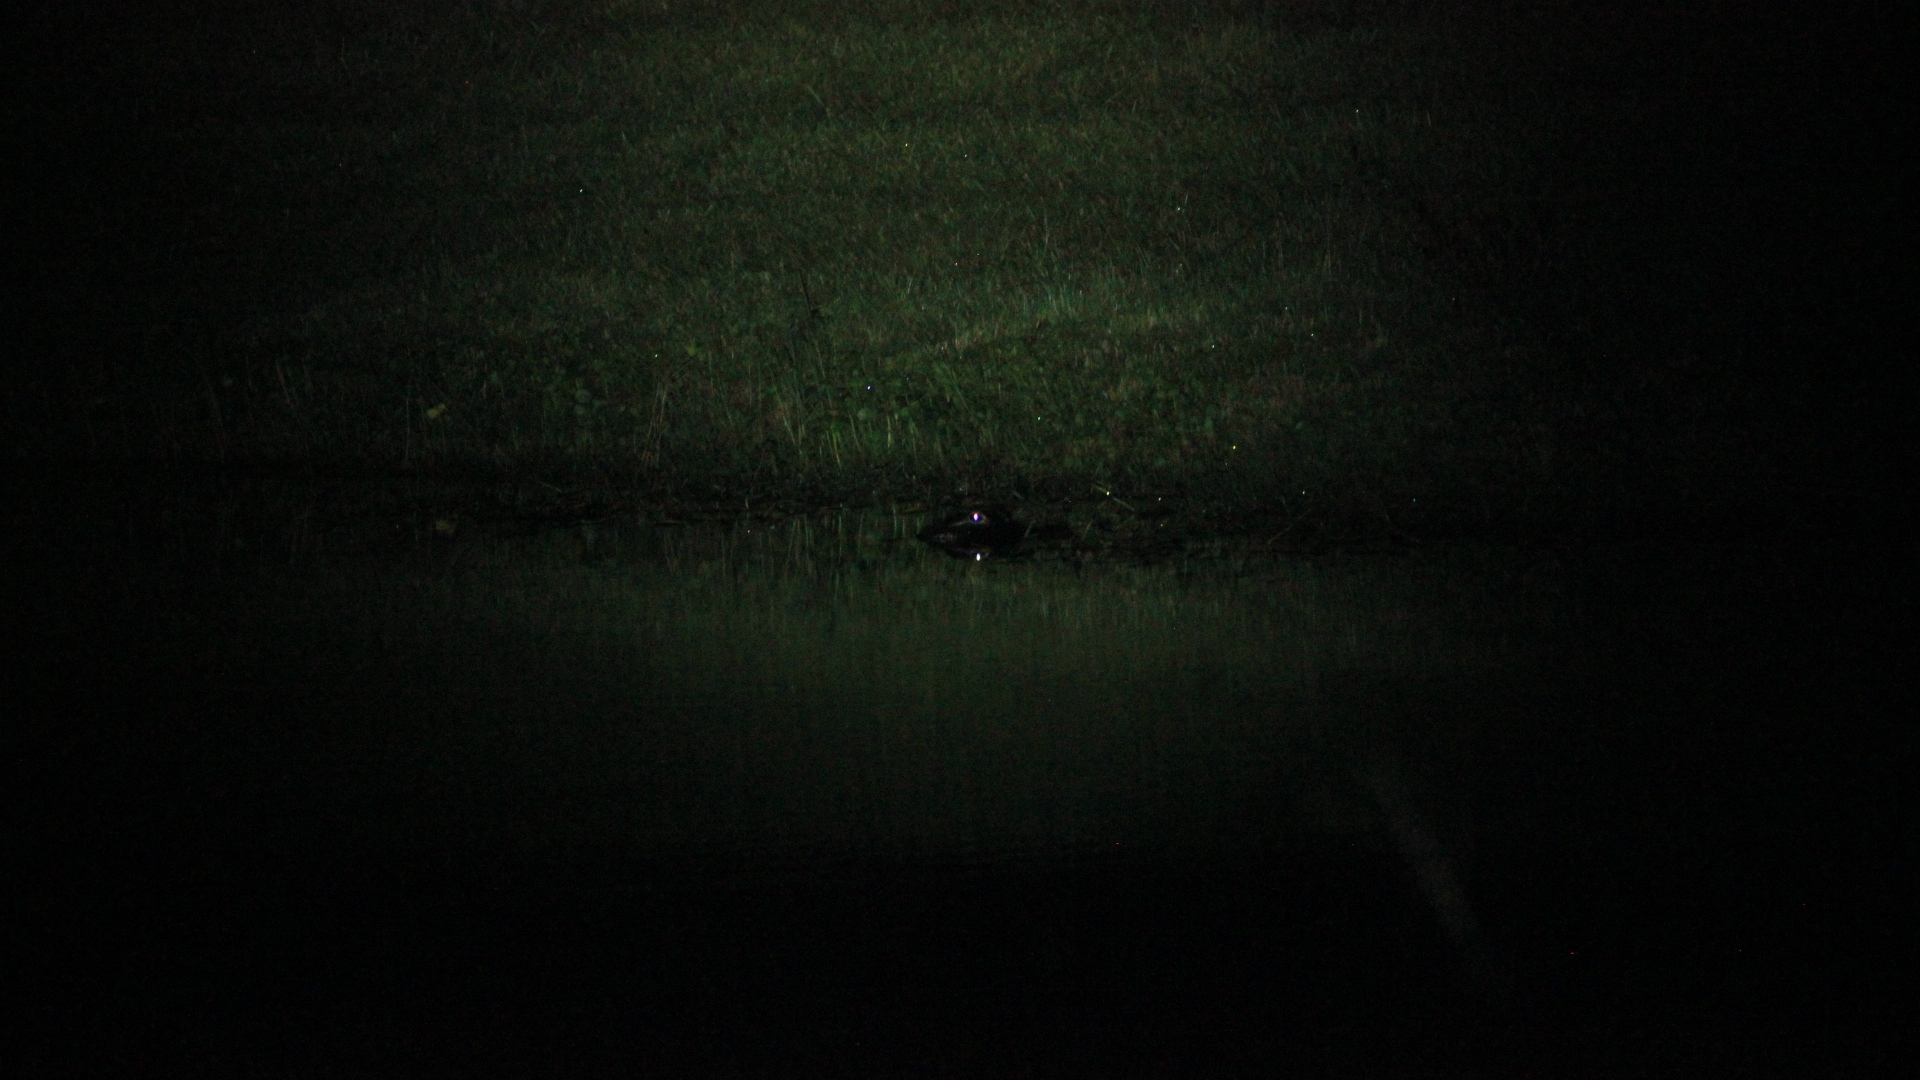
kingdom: Animalia
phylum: Chordata
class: Crocodylia
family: Alligatoridae
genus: Alligator
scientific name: Alligator mississippiensis
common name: American alligator
